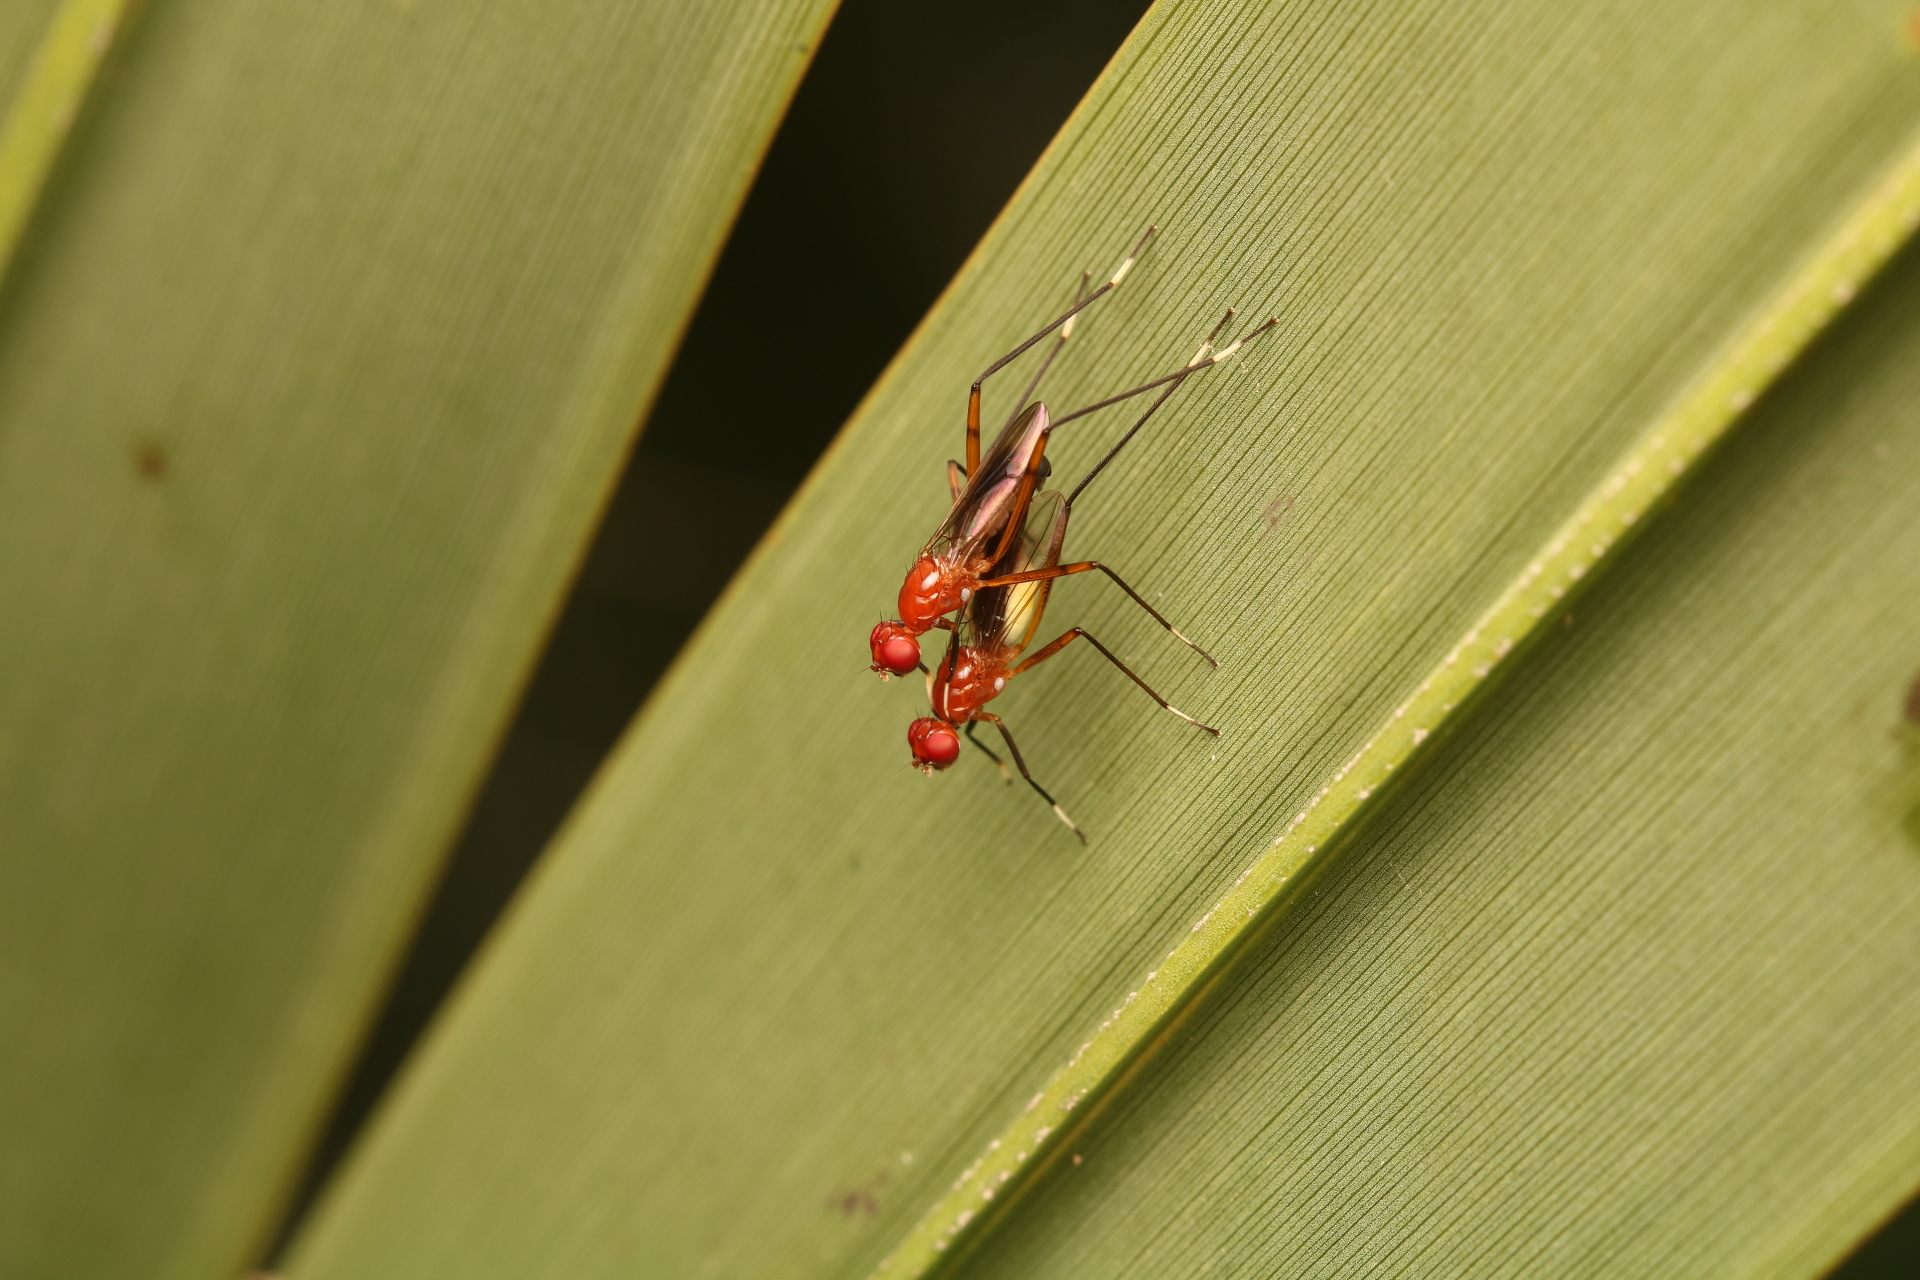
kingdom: Animalia
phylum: Arthropoda
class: Insecta
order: Diptera
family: Micropezidae
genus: Grallipeza
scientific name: Grallipeza nebulosa
